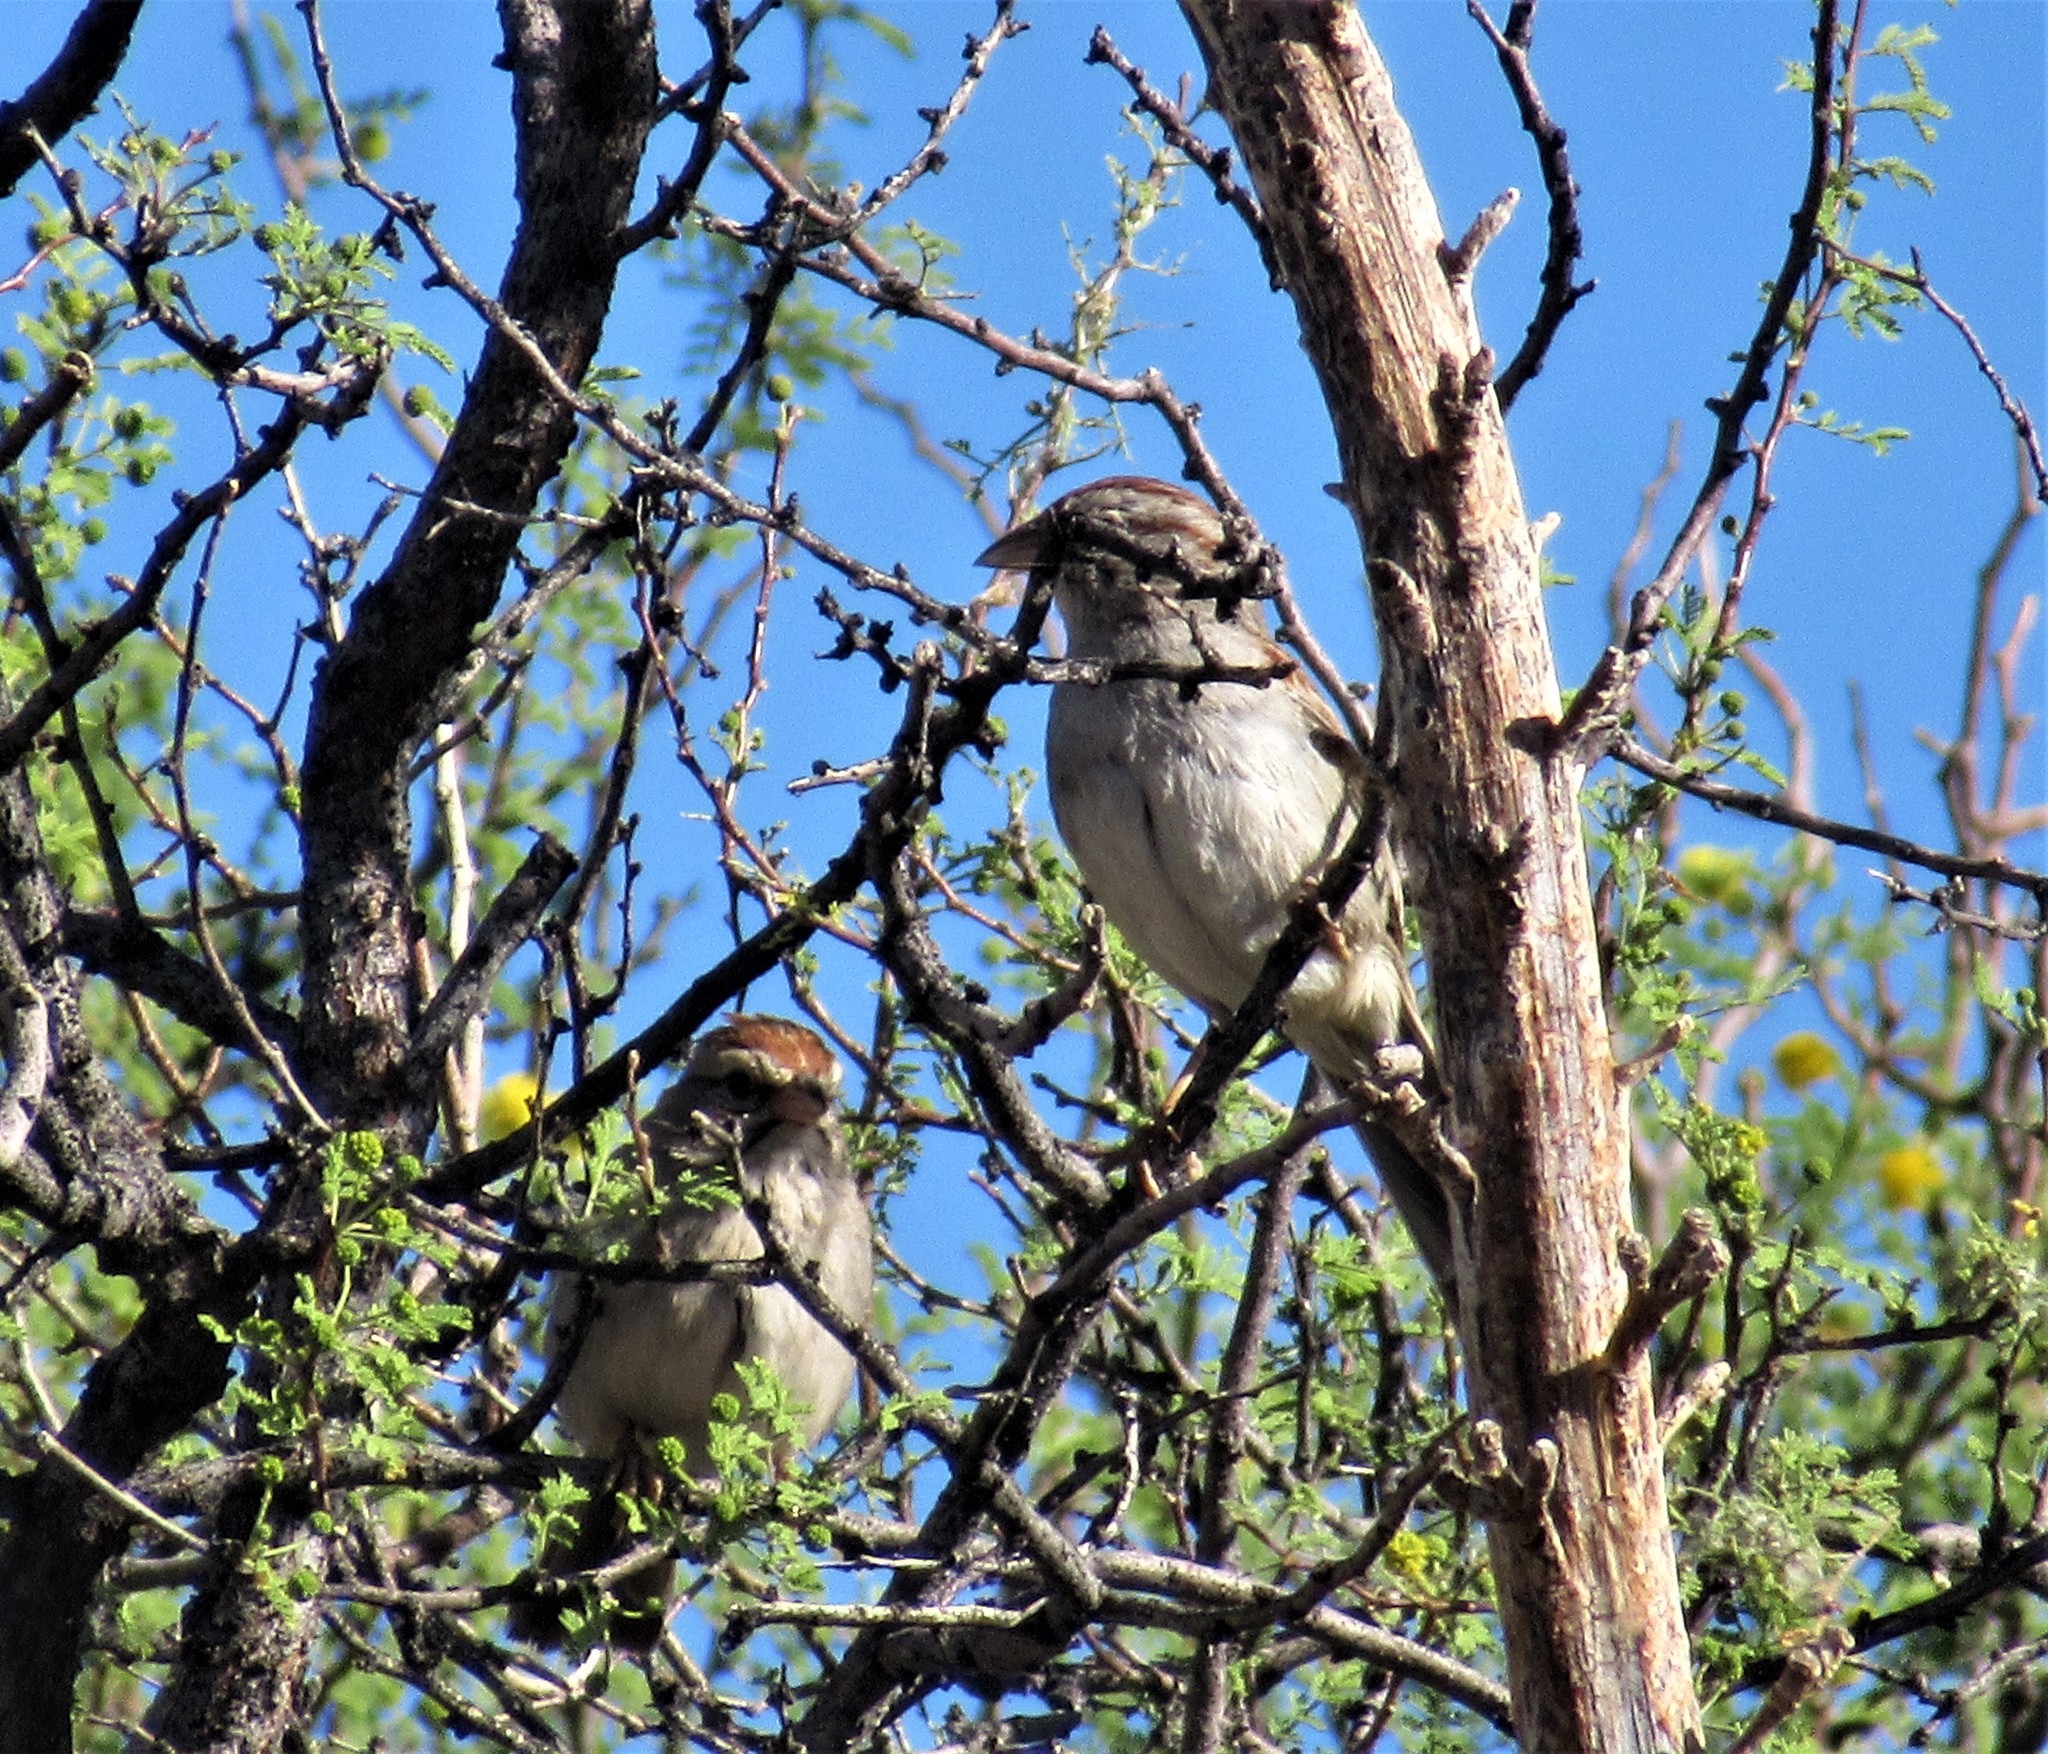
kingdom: Animalia
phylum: Chordata
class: Aves
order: Passeriformes
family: Passerellidae
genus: Peucaea
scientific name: Peucaea carpalis
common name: Rufous-winged sparrow
